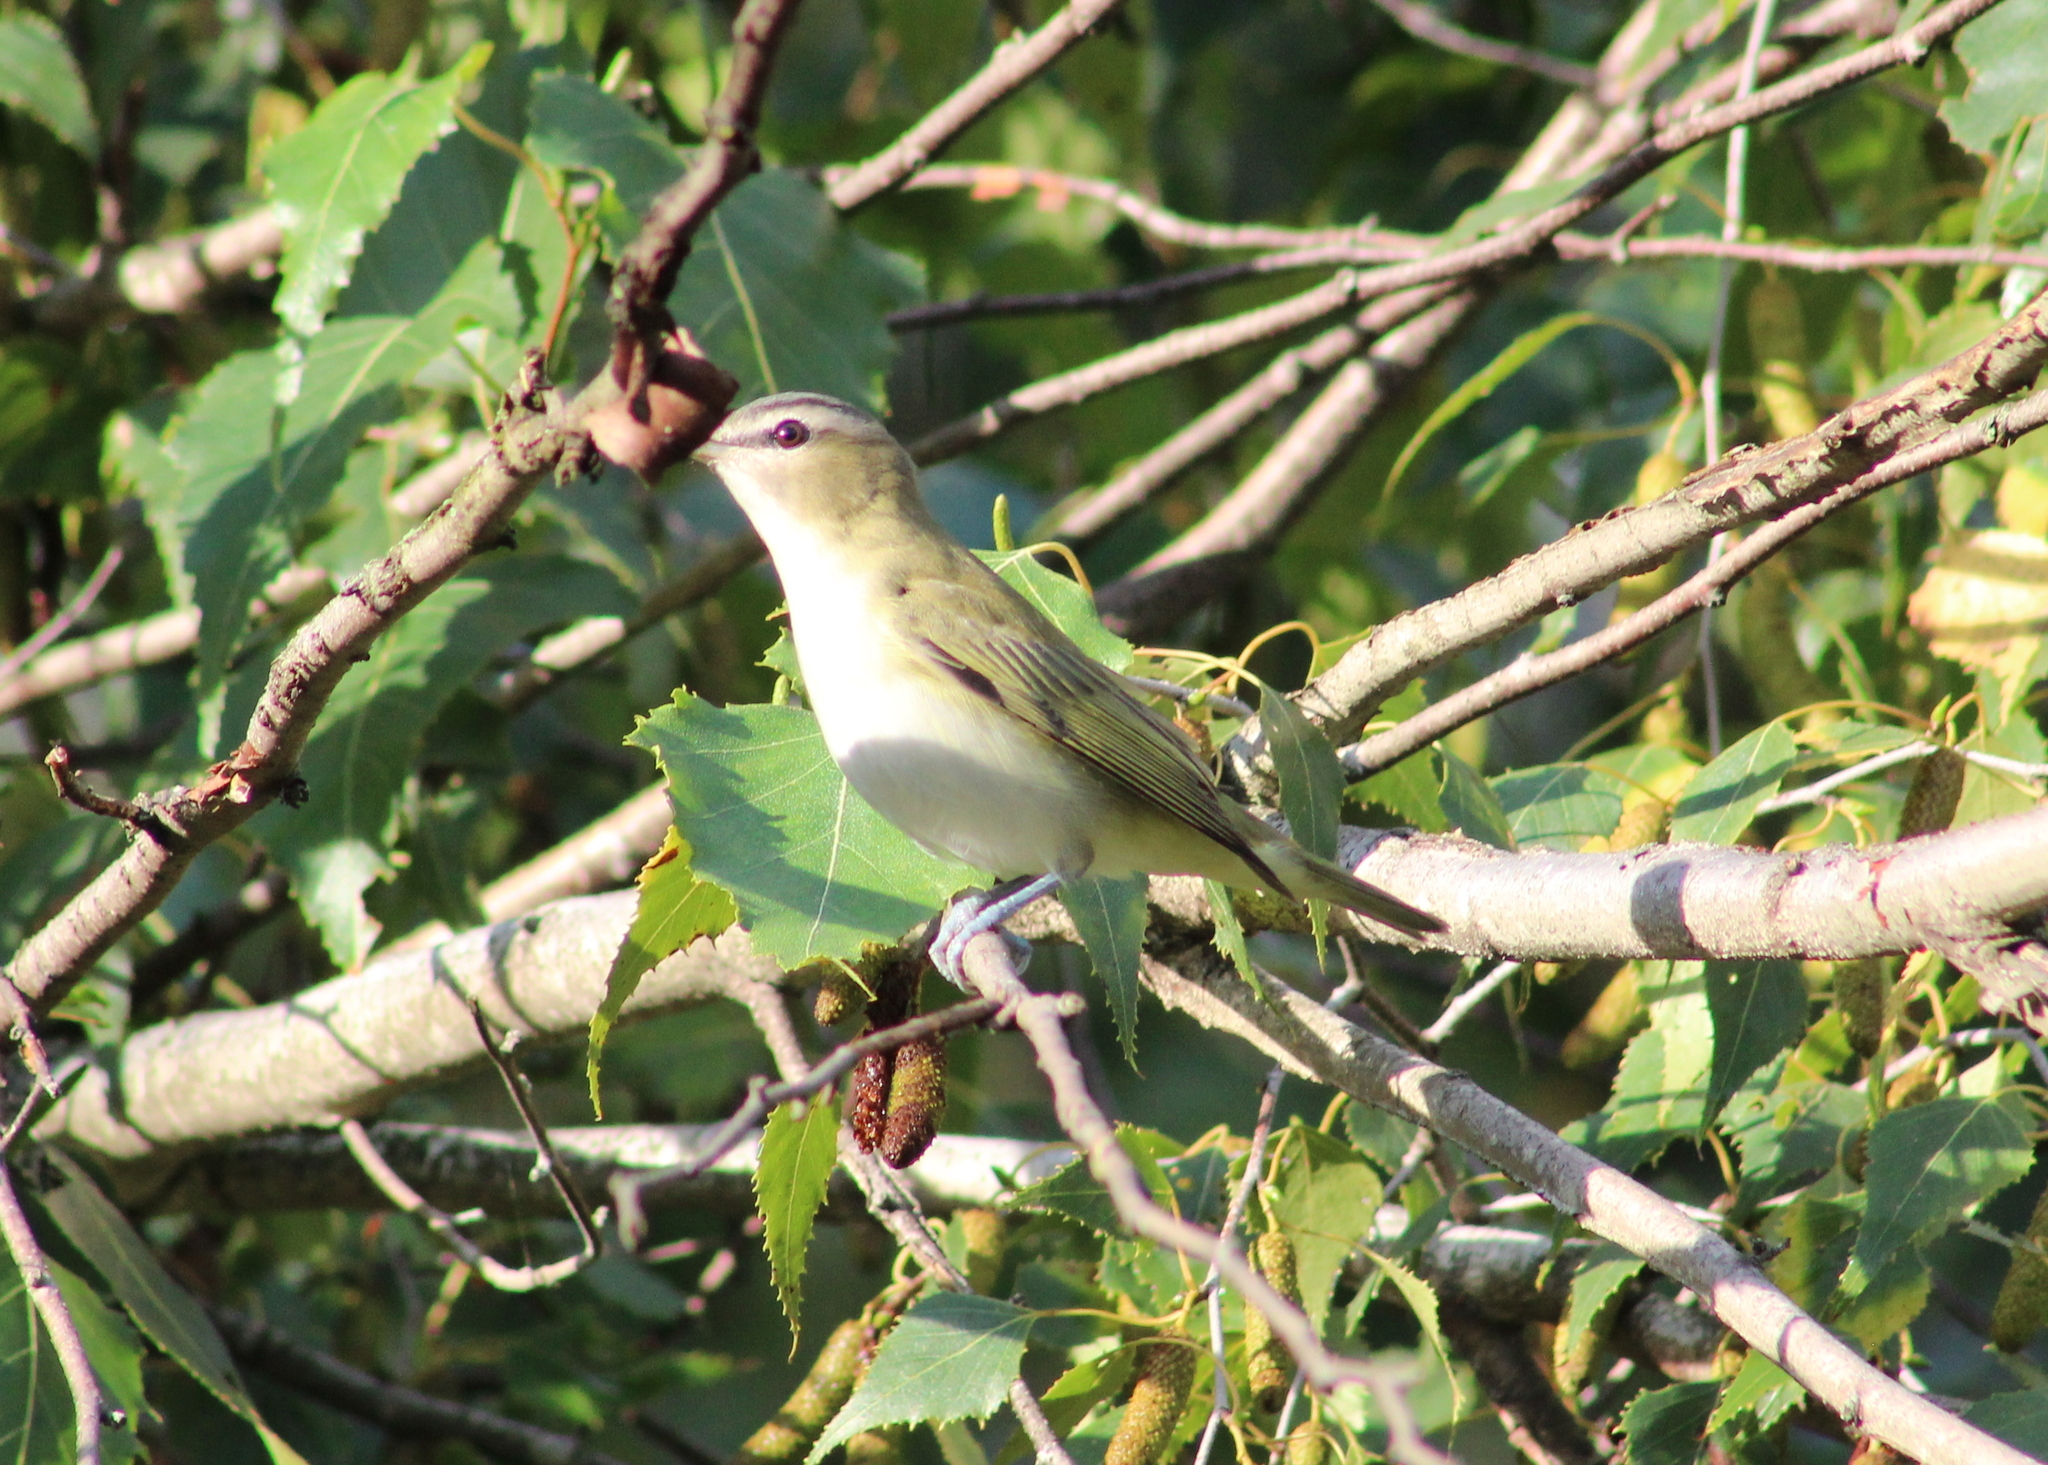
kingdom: Animalia
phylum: Chordata
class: Aves
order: Passeriformes
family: Vireonidae
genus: Vireo
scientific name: Vireo olivaceus
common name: Red-eyed vireo
